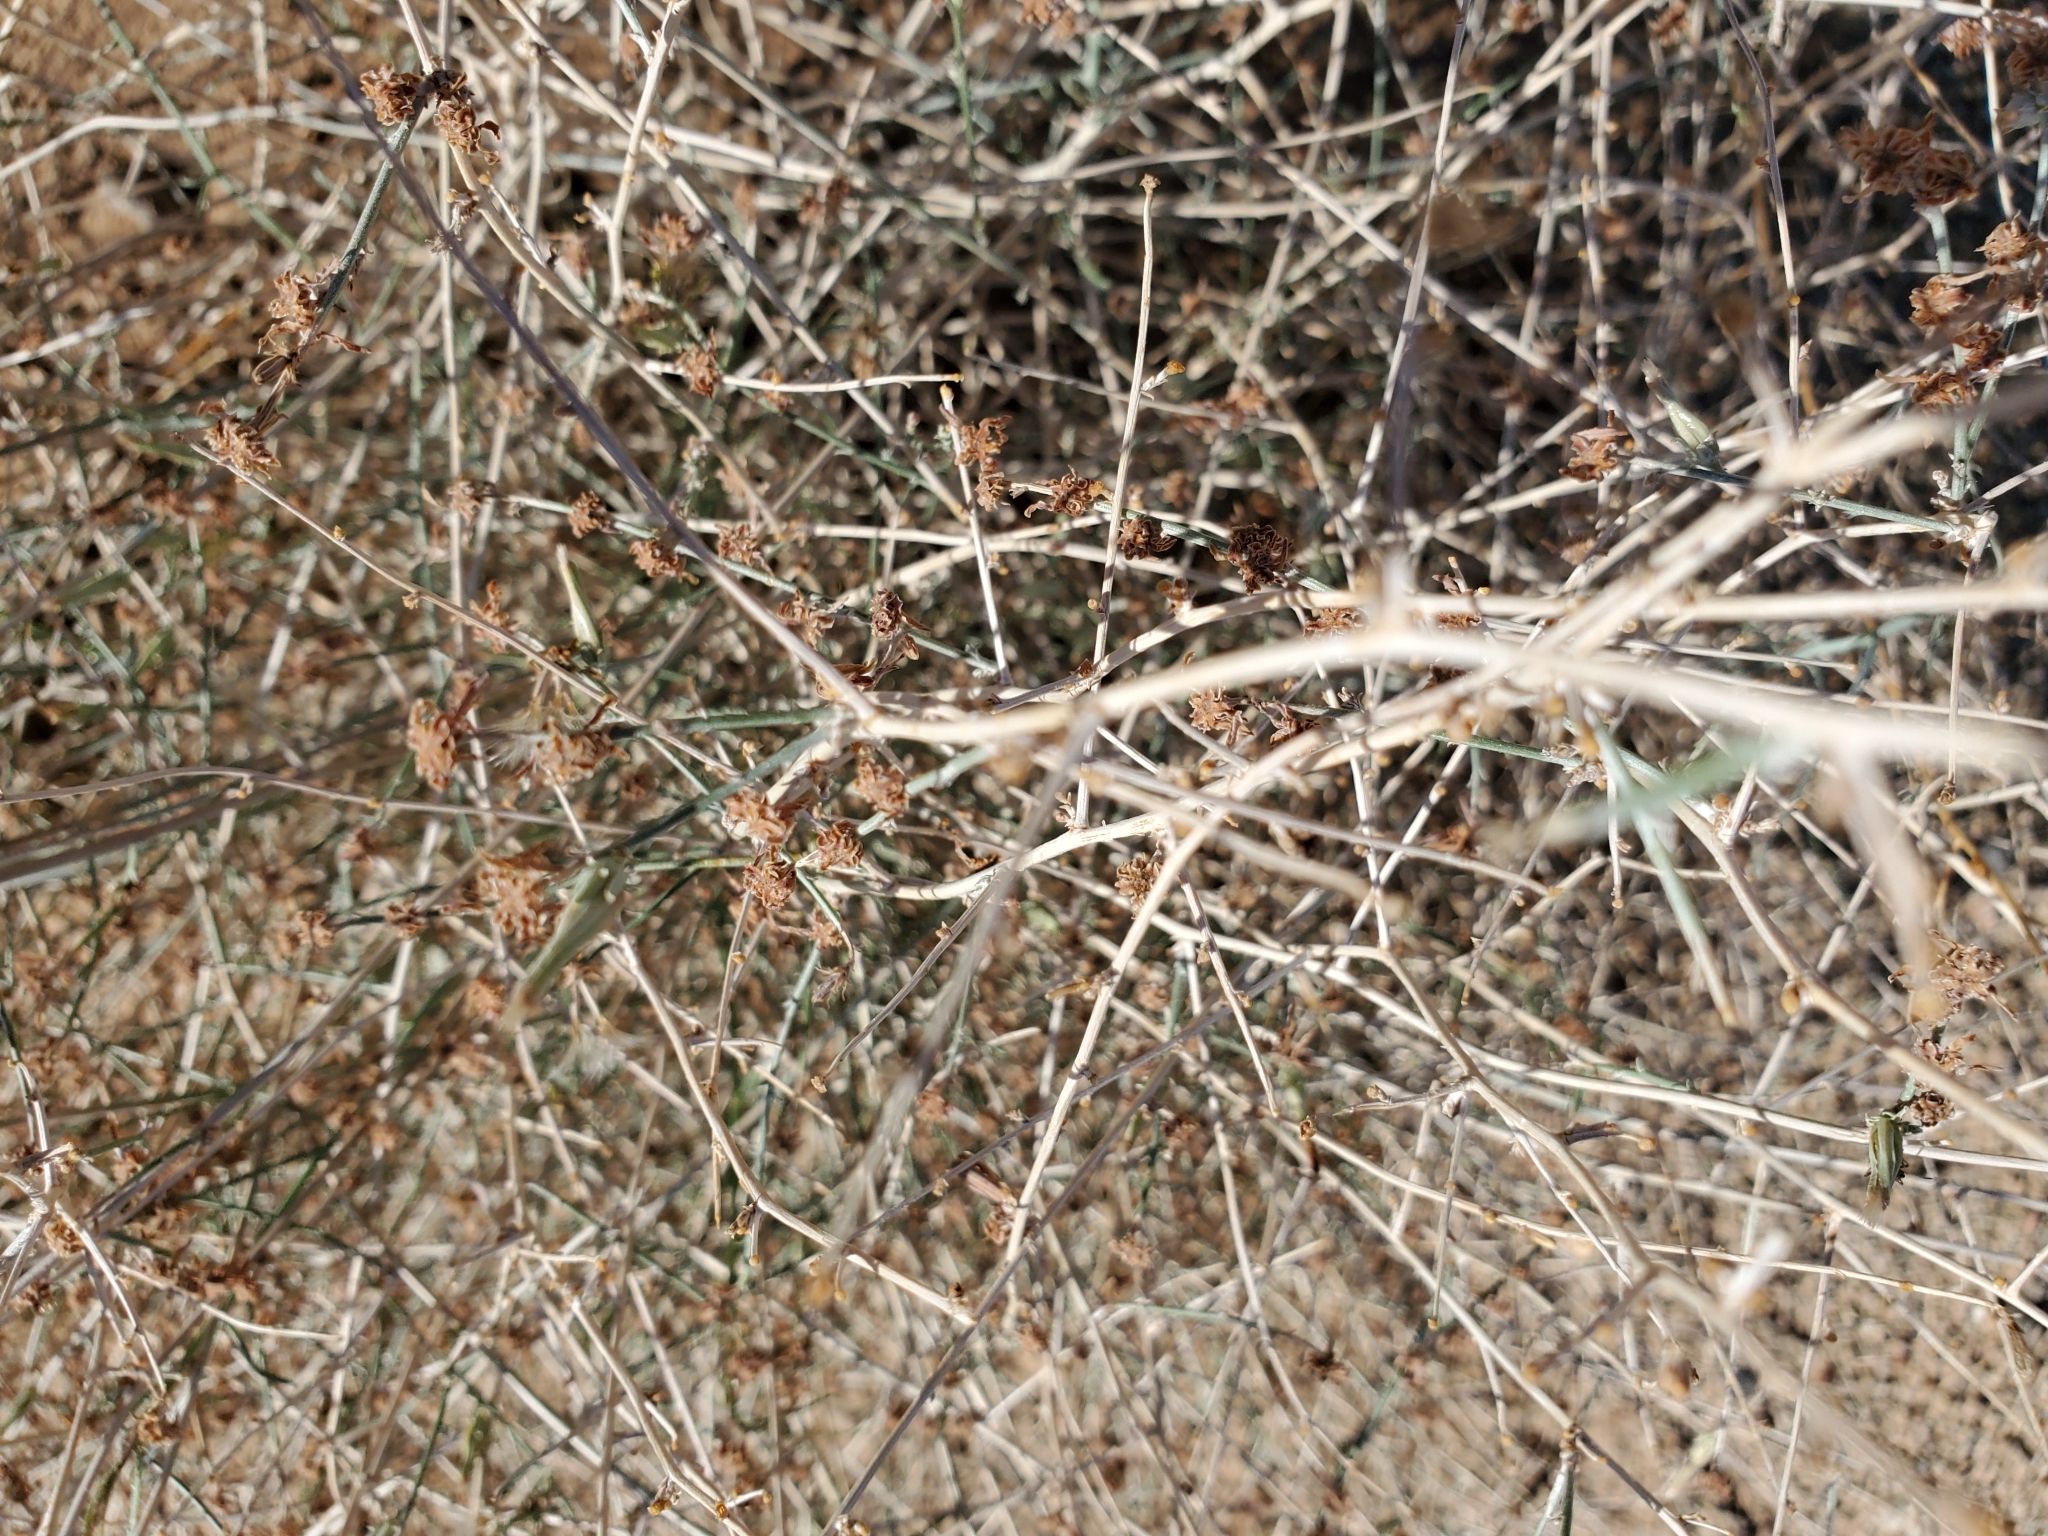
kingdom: Plantae
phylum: Tracheophyta
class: Magnoliopsida
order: Asterales
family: Asteraceae
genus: Stephanomeria
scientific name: Stephanomeria pauciflora
